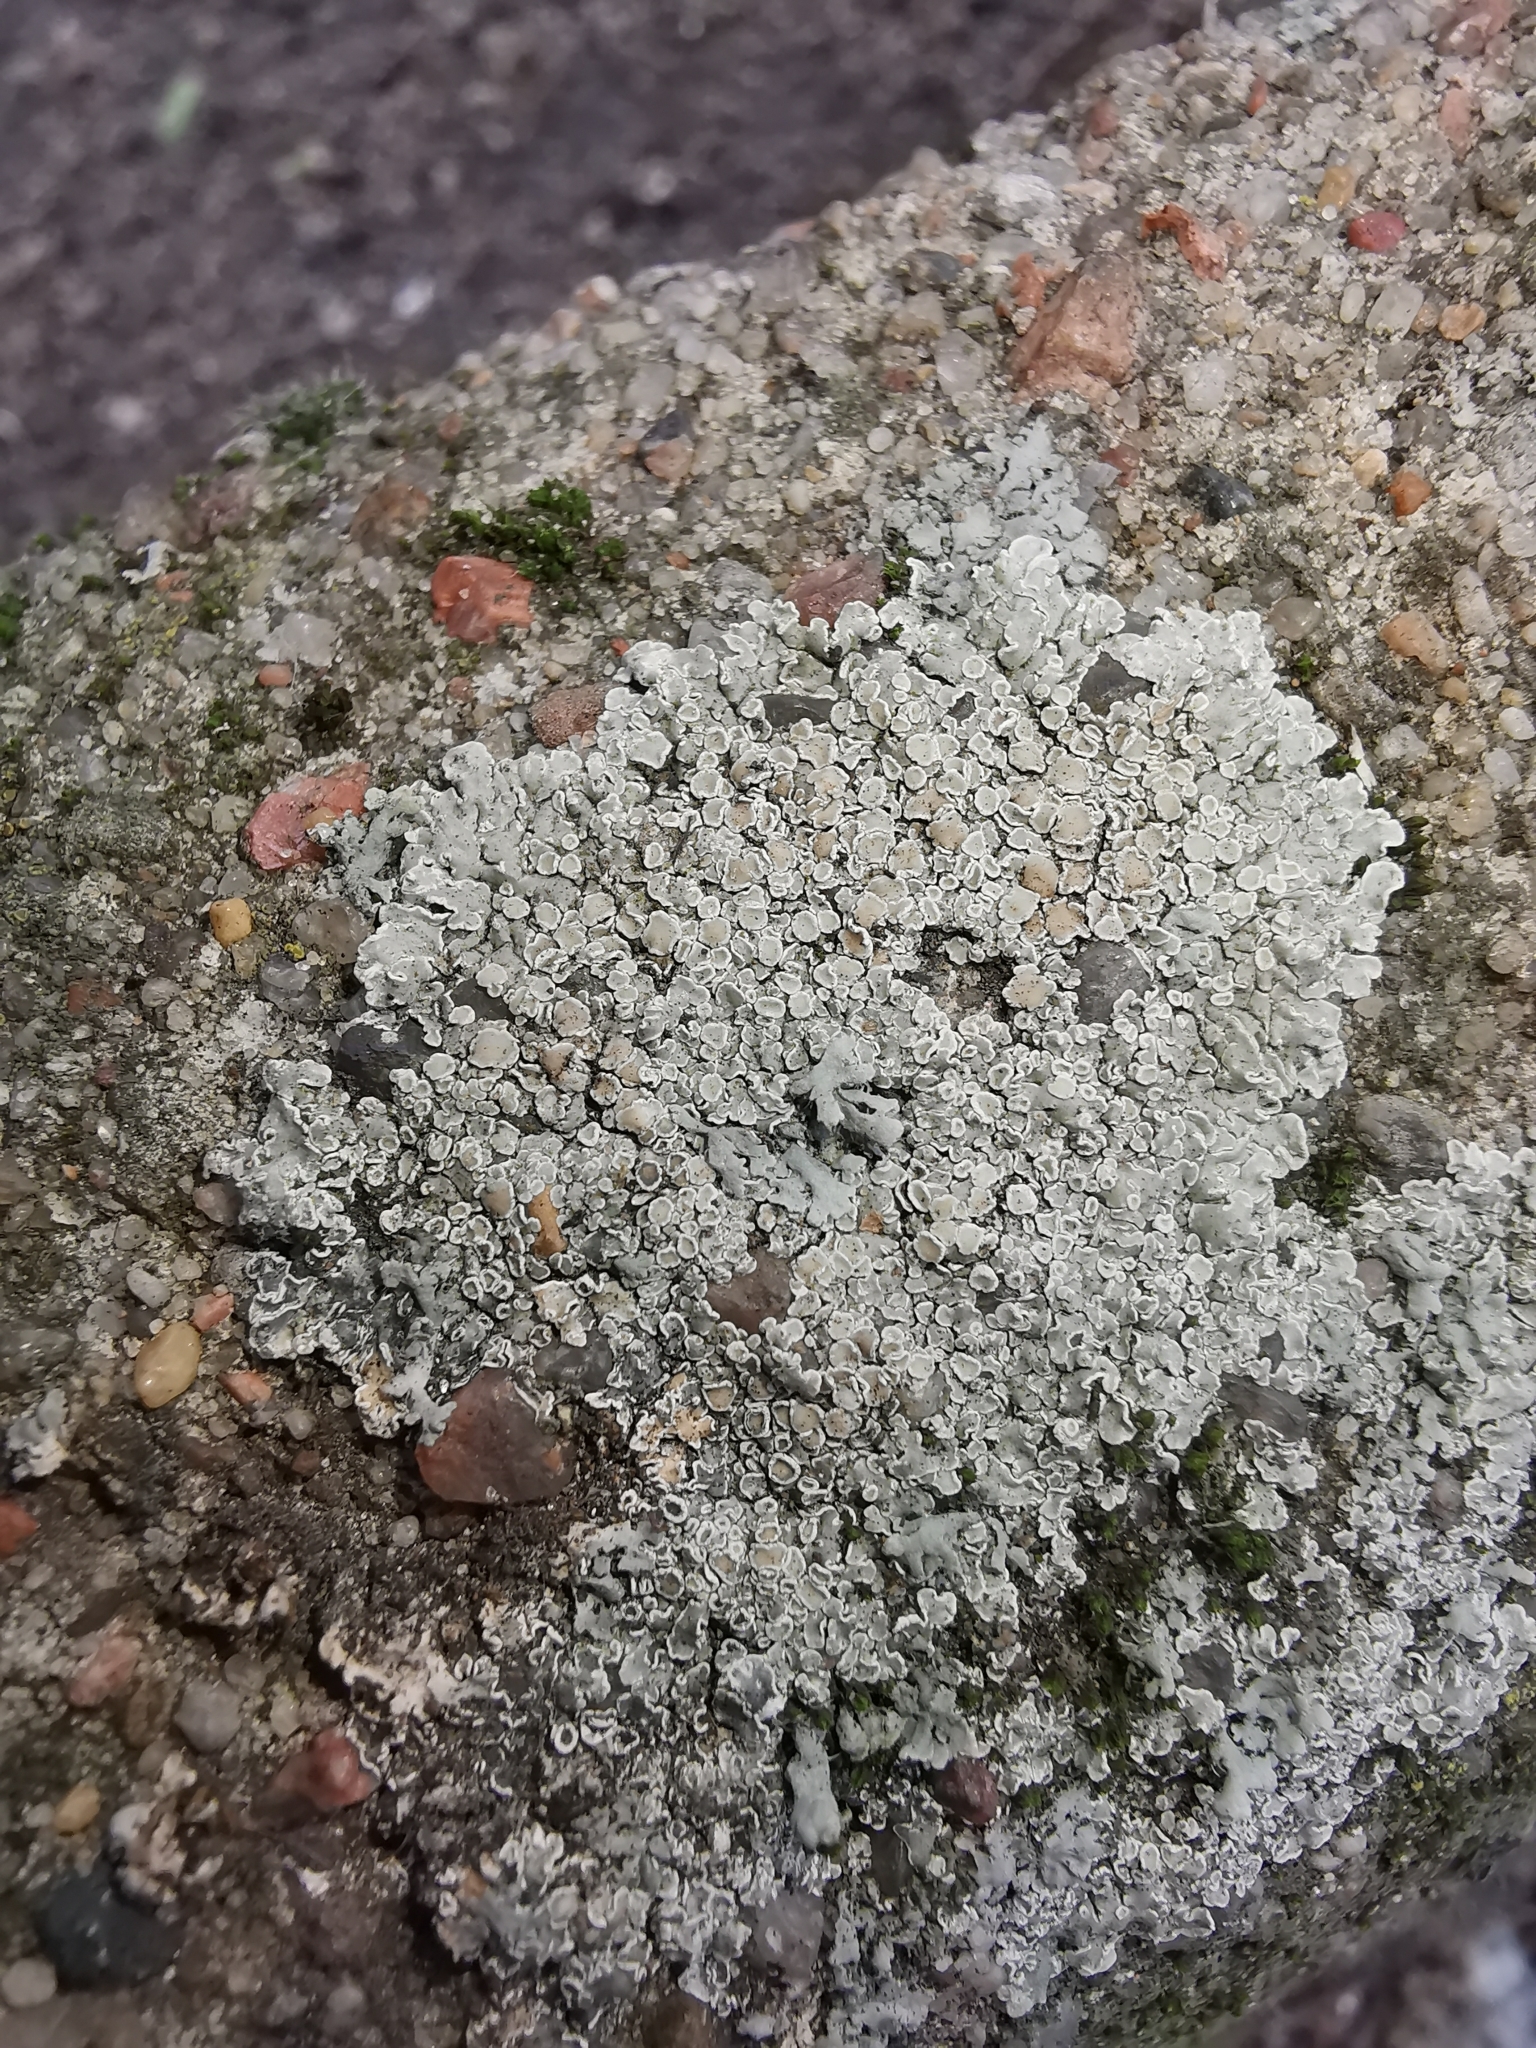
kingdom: Fungi
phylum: Ascomycota
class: Lecanoromycetes
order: Lecanorales
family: Lecanoraceae
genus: Protoparmeliopsis
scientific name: Protoparmeliopsis muralis
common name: Stonewall rim lichen
